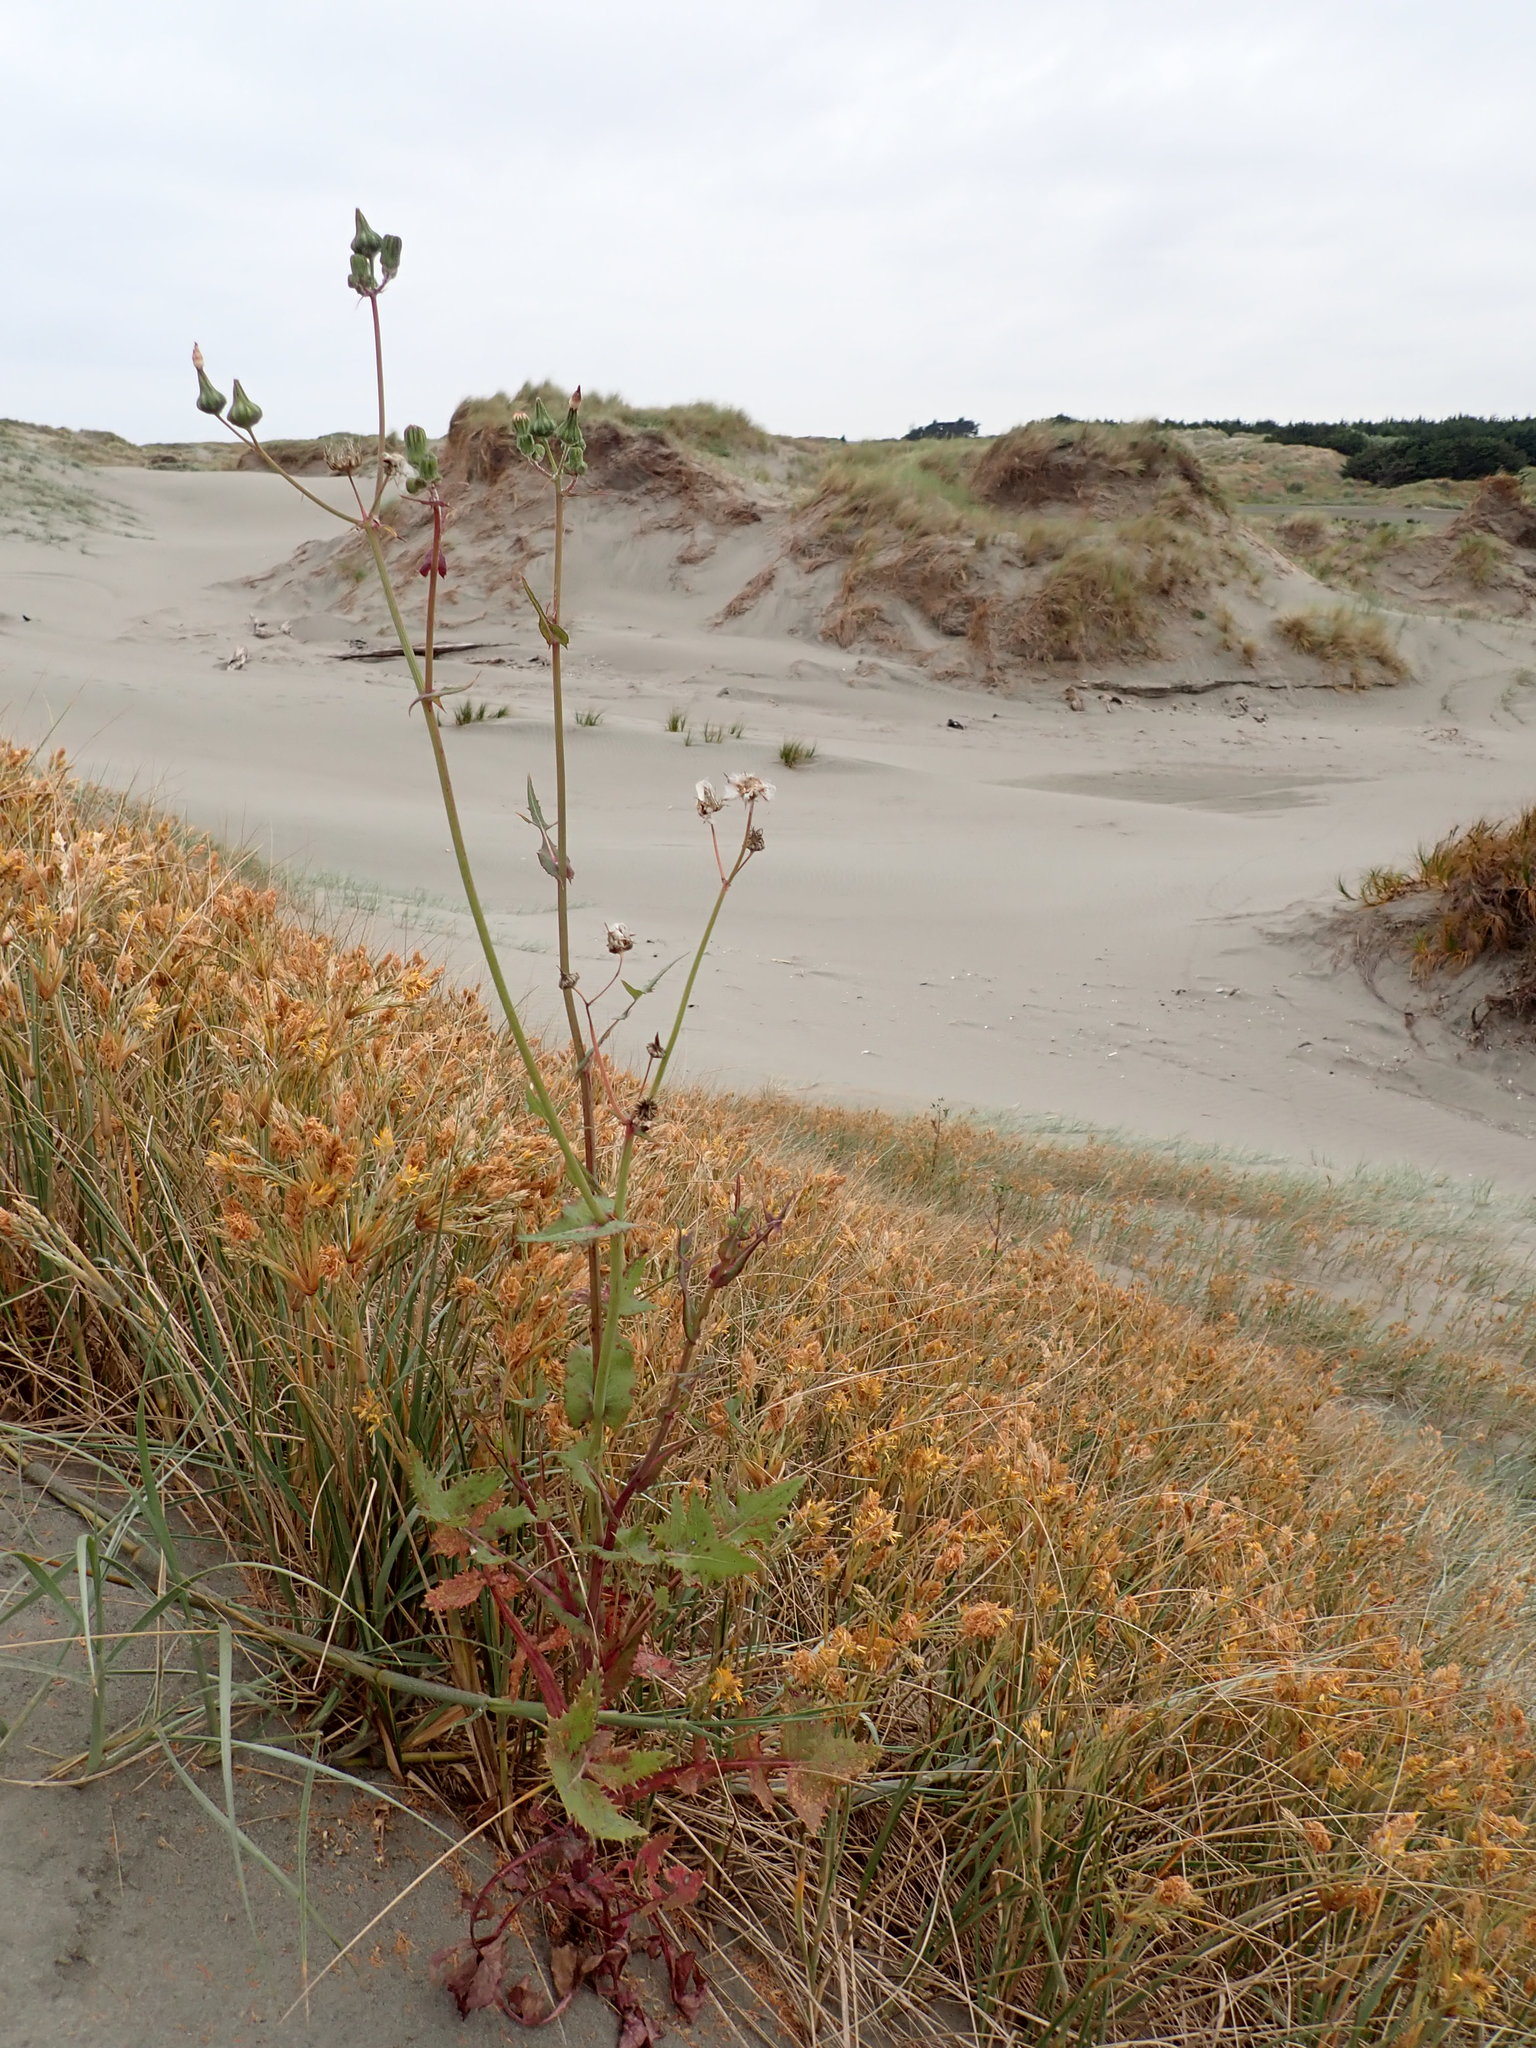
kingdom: Plantae
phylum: Tracheophyta
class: Magnoliopsida
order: Asterales
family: Asteraceae
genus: Sonchus
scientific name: Sonchus oleraceus
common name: Common sowthistle
